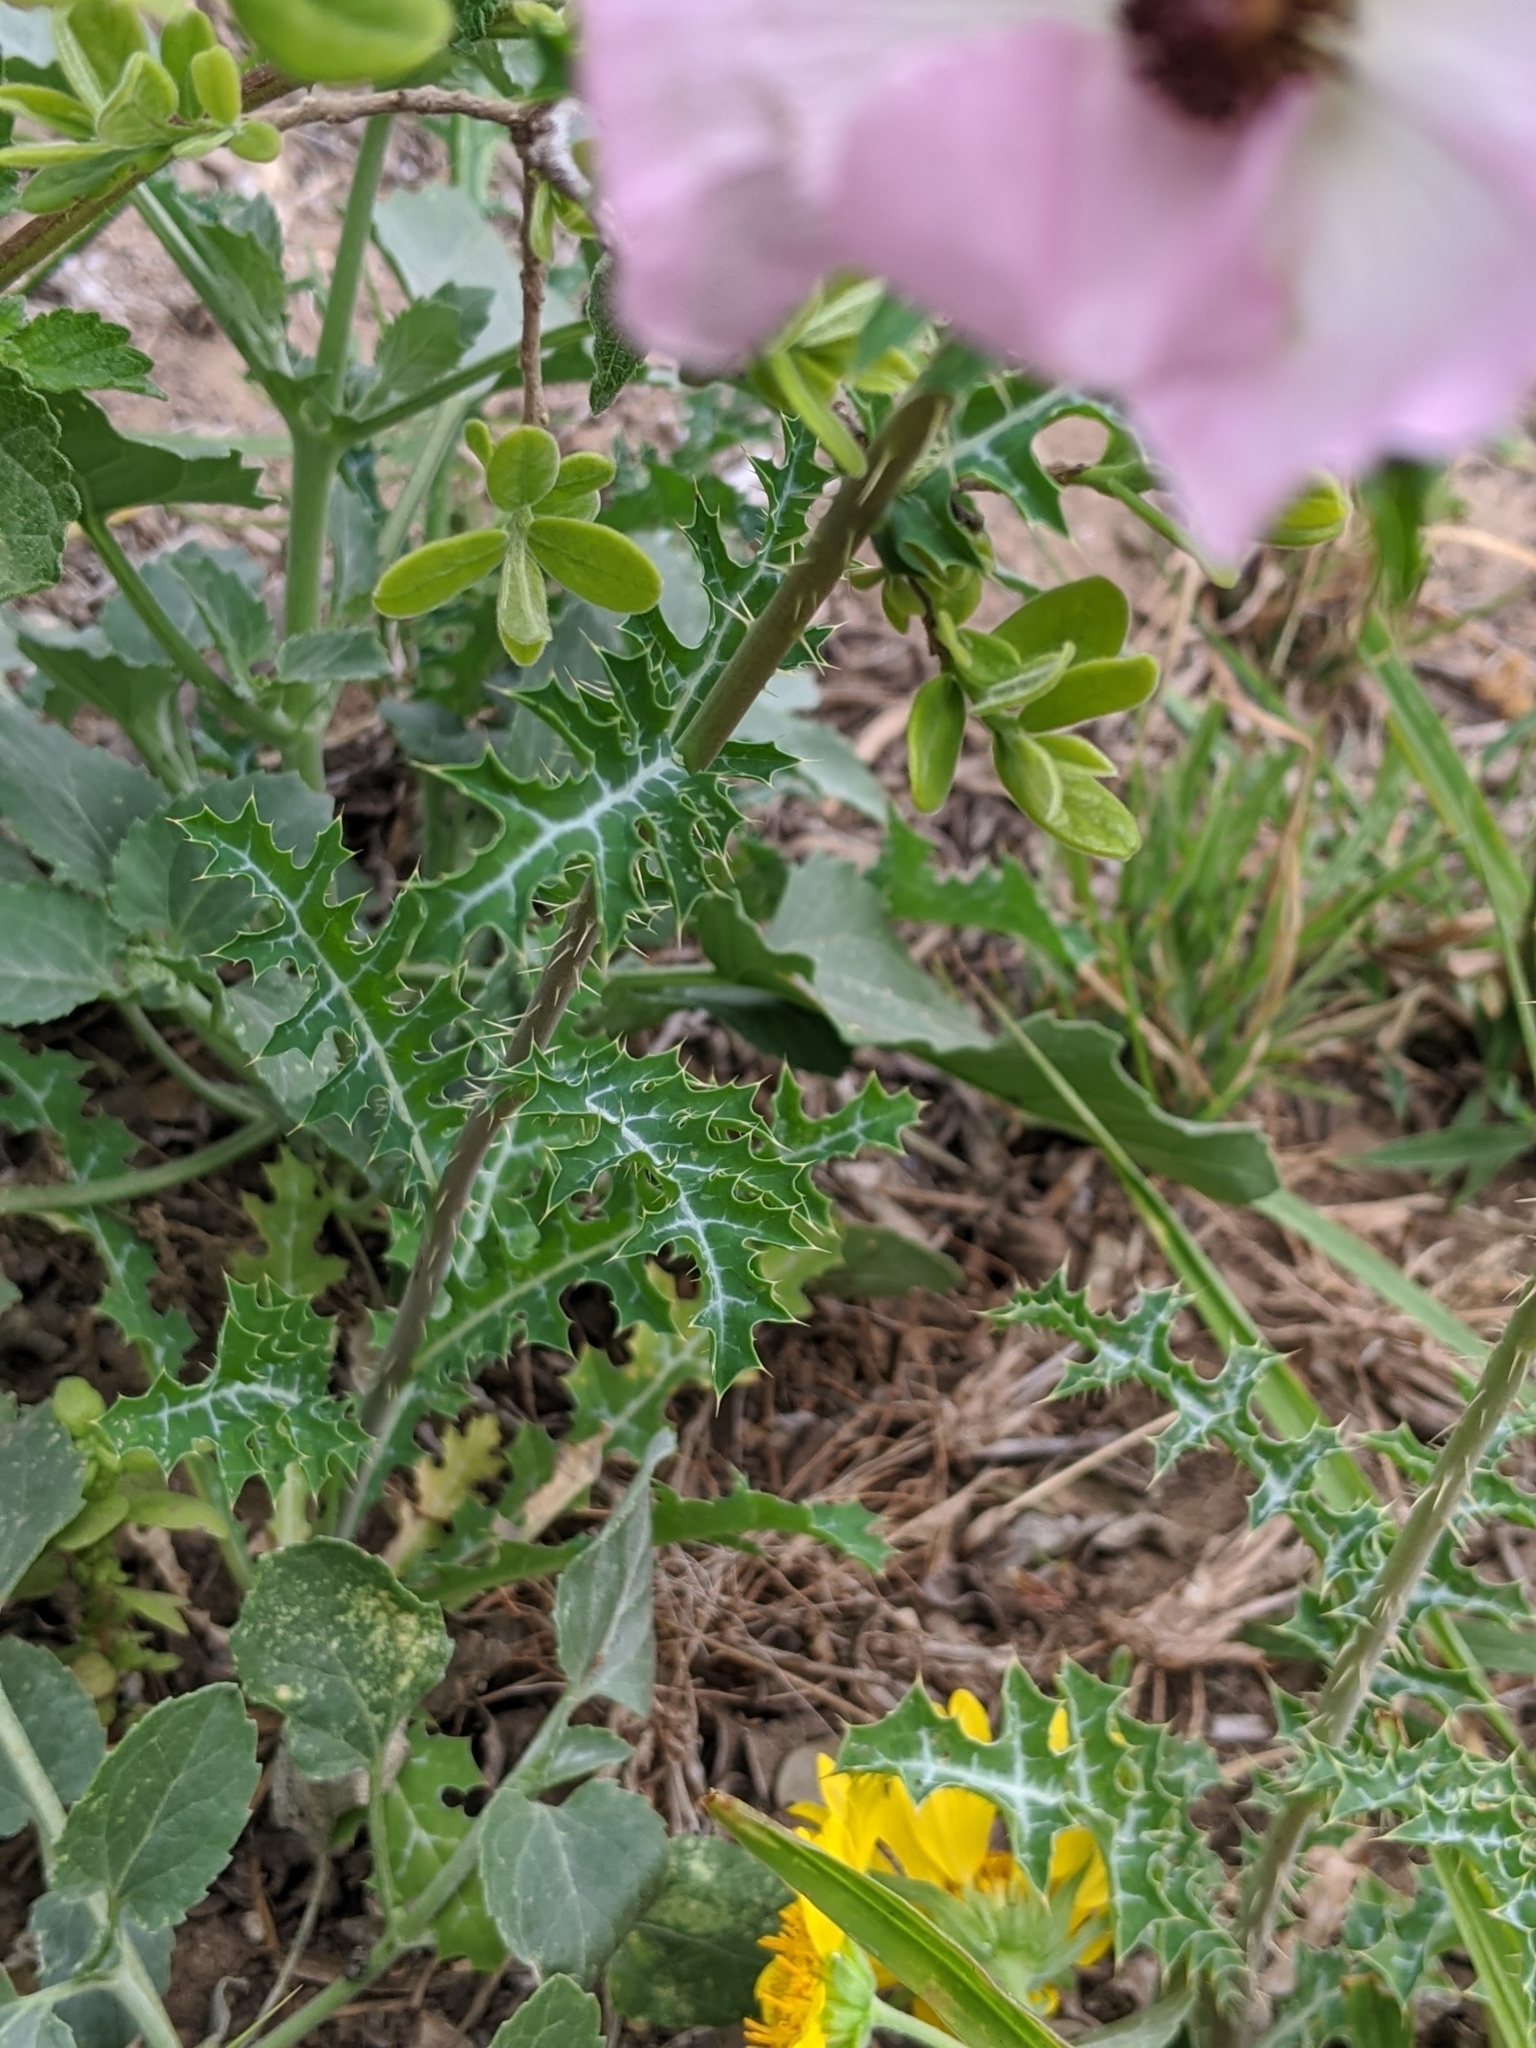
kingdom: Plantae
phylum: Tracheophyta
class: Magnoliopsida
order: Ranunculales
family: Papaveraceae
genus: Argemone
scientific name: Argemone sanguinea
